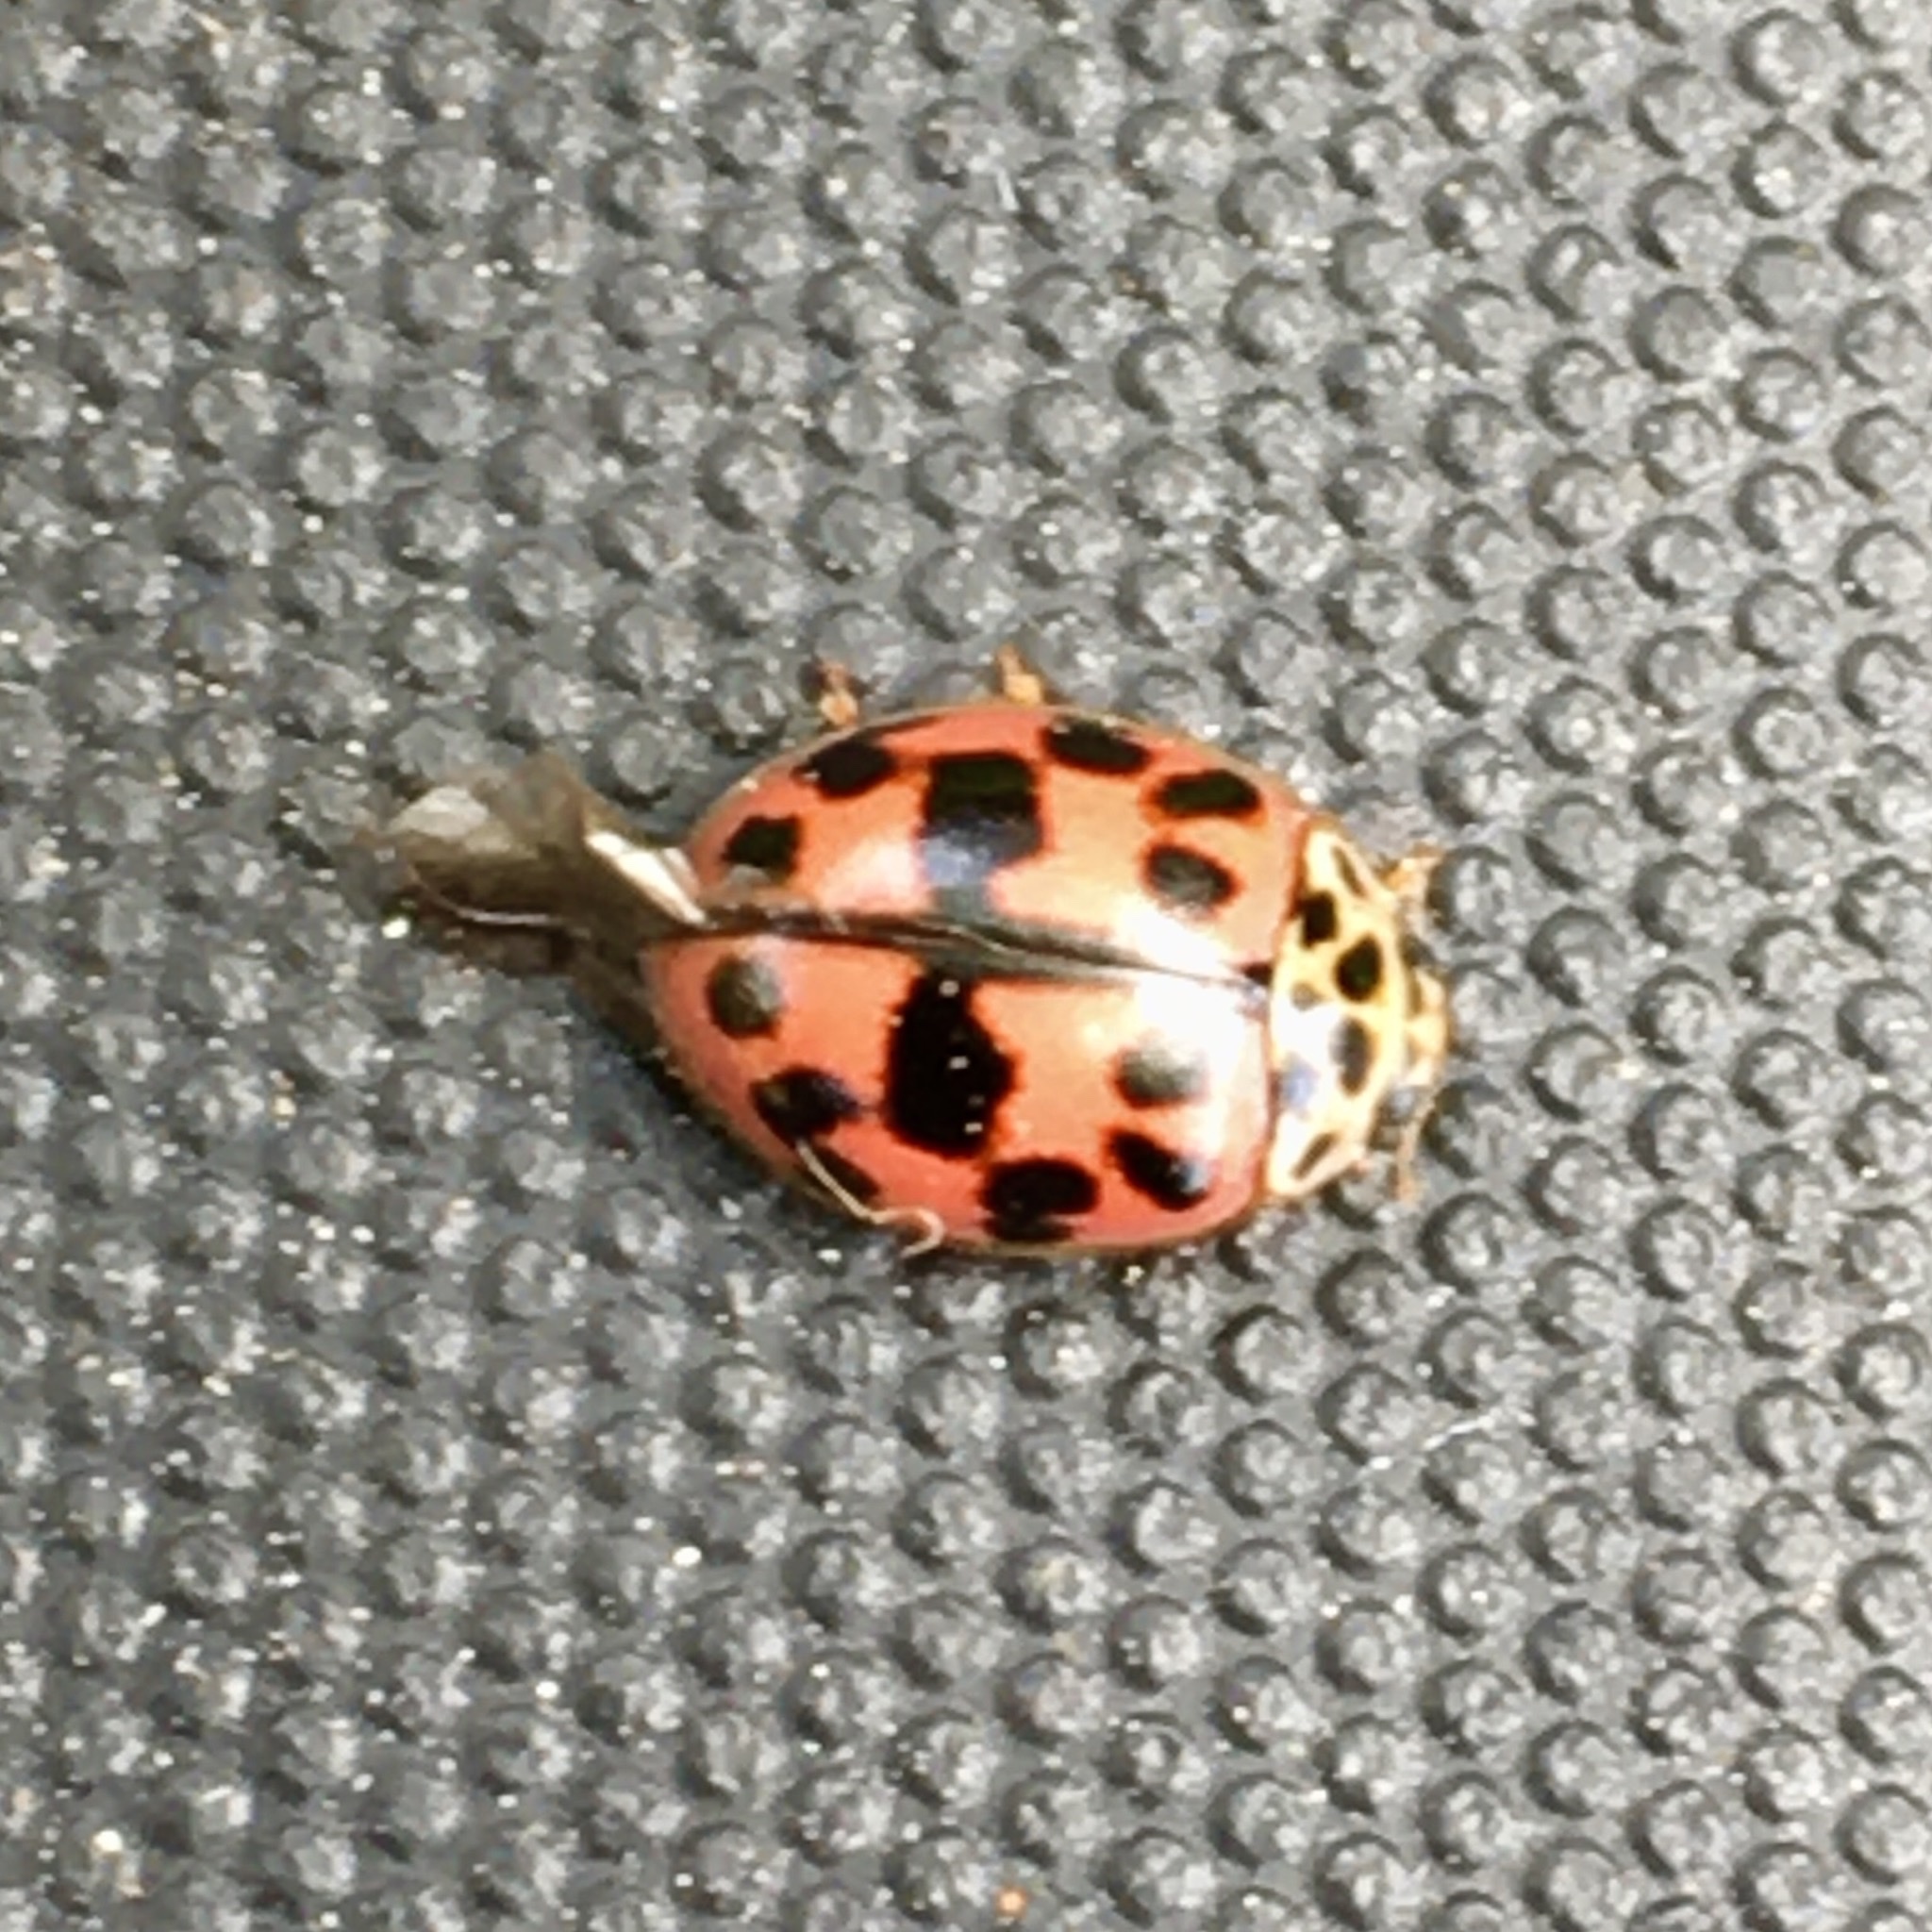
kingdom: Animalia
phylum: Arthropoda
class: Insecta
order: Coleoptera
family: Coccinellidae
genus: Oenopia
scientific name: Oenopia conglobata
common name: Ladybird beetle
